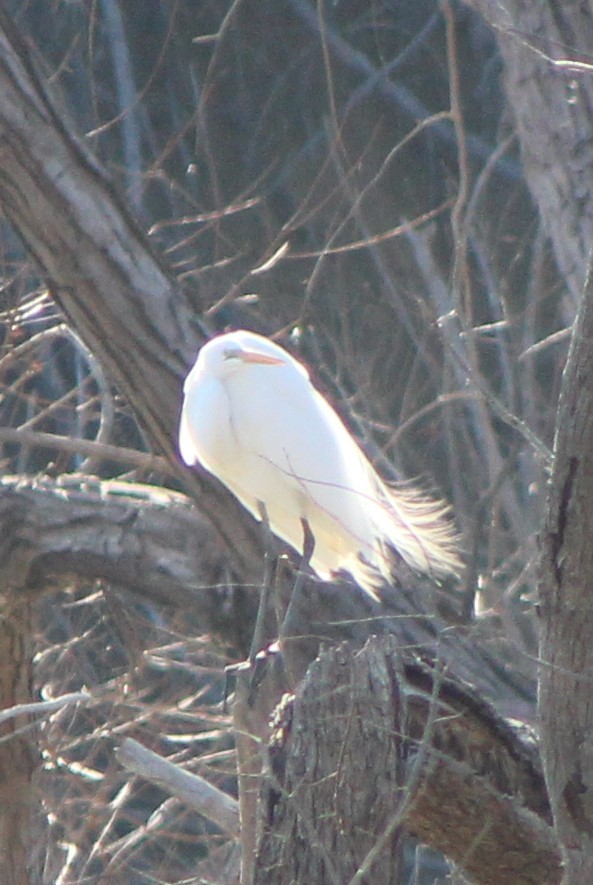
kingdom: Animalia
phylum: Chordata
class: Aves
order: Pelecaniformes
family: Ardeidae
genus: Ardea
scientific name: Ardea alba
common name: Great egret
